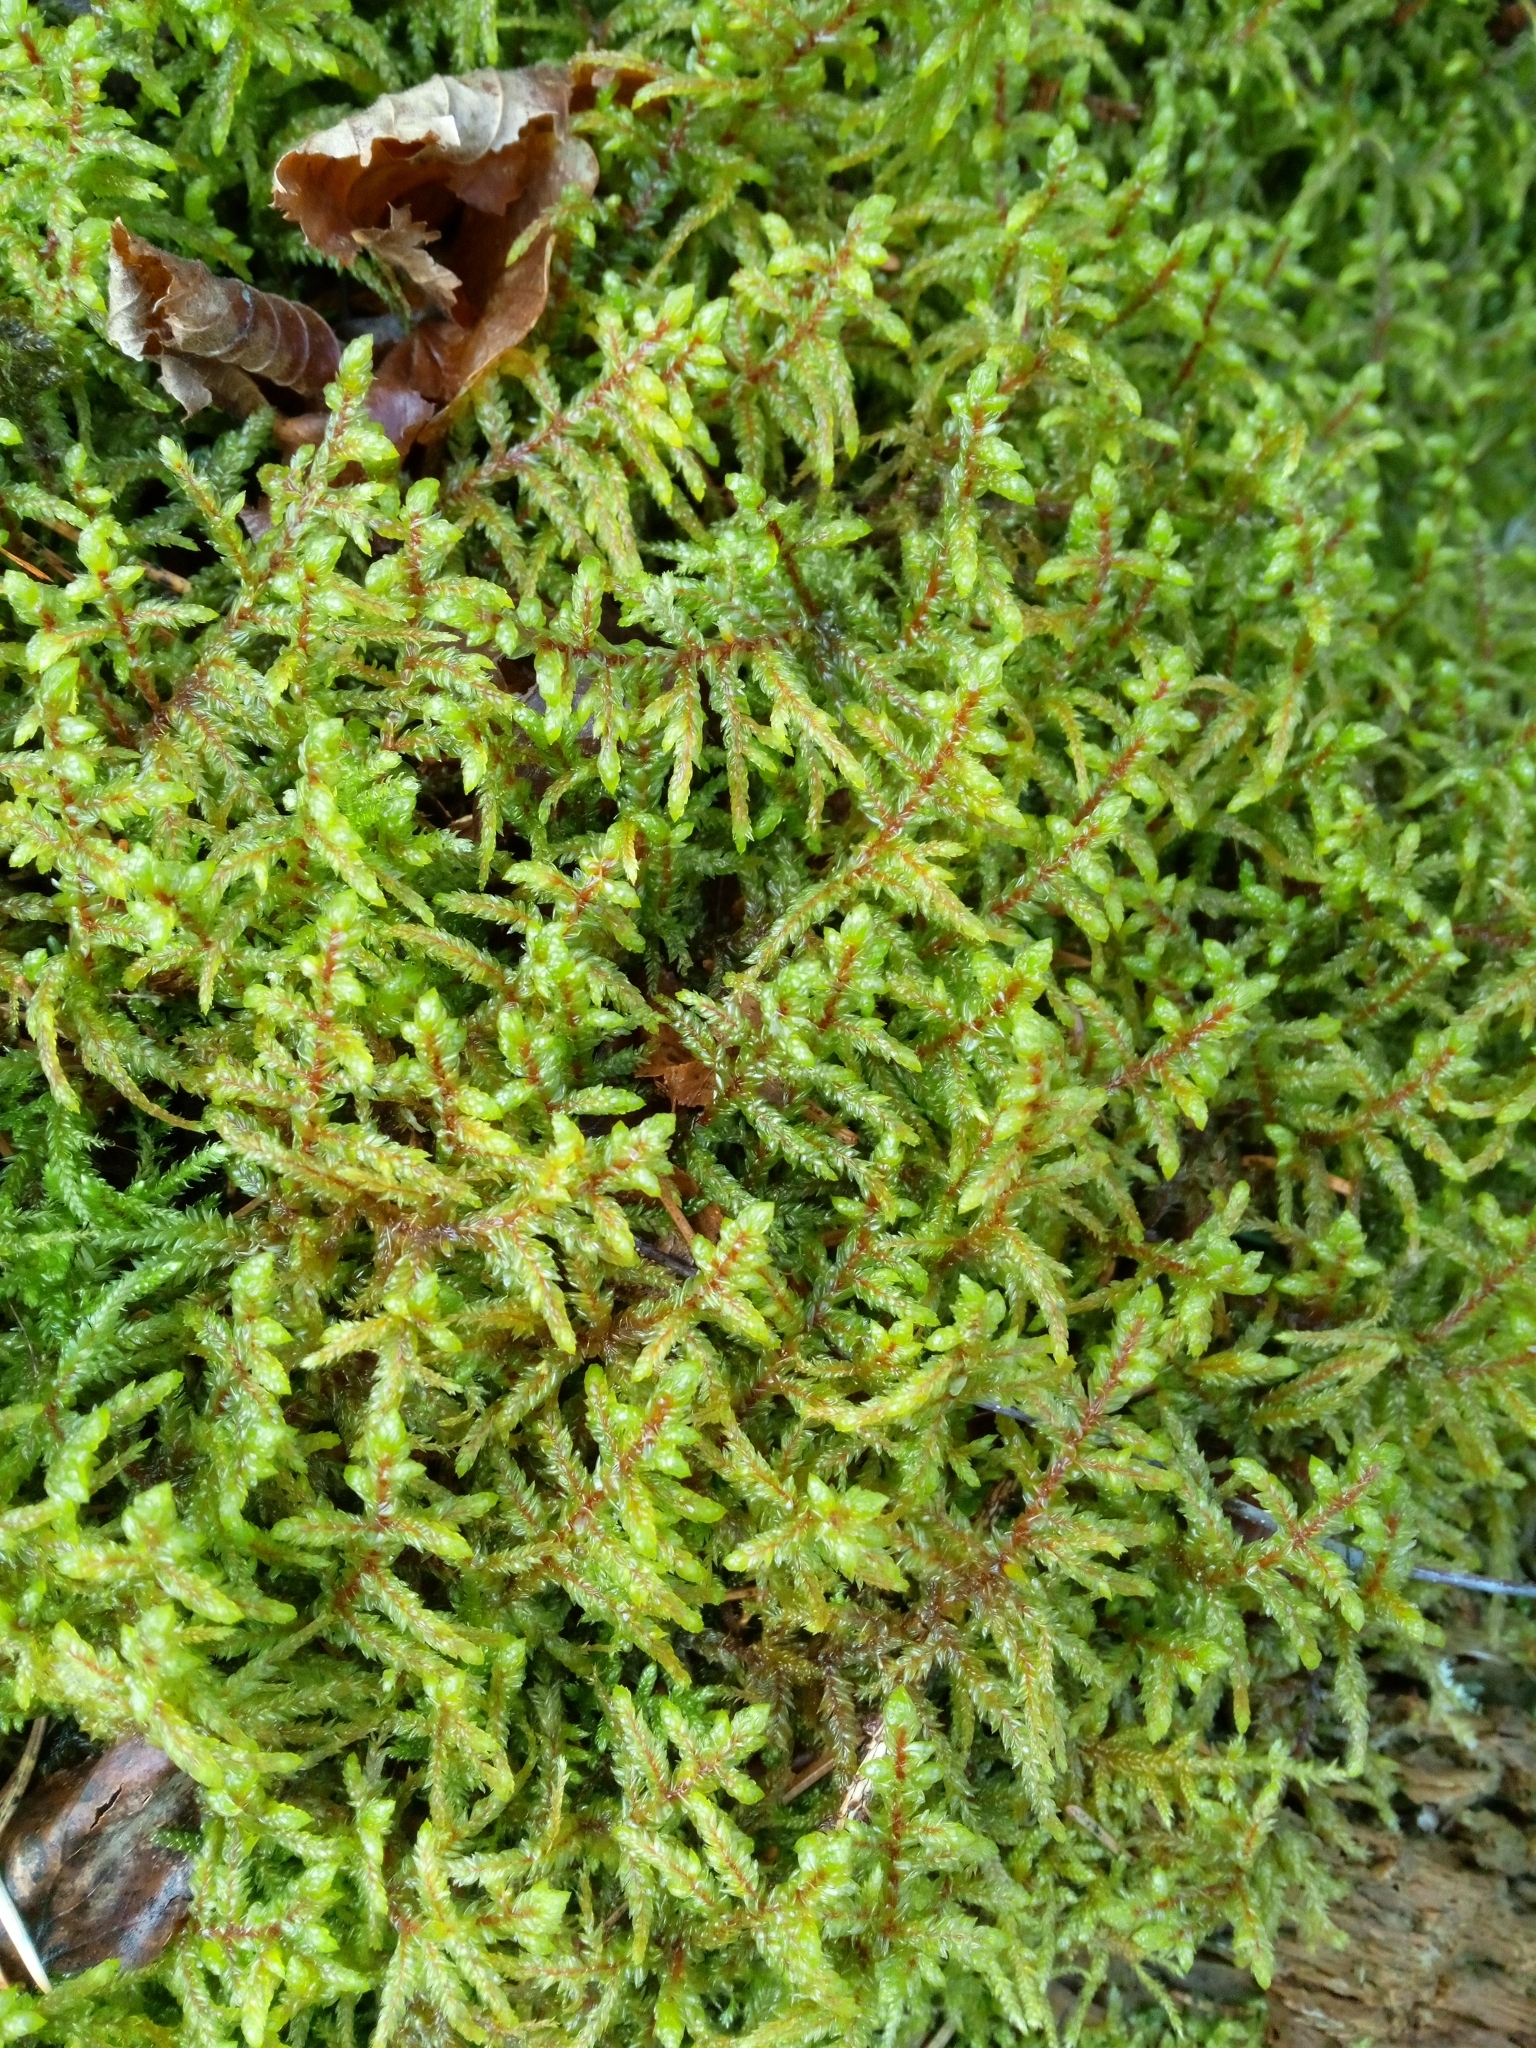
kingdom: Plantae
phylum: Bryophyta
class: Bryopsida
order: Hypnales
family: Hylocomiaceae
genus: Pleurozium
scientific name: Pleurozium schreberi
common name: Red-stemmed feather moss
